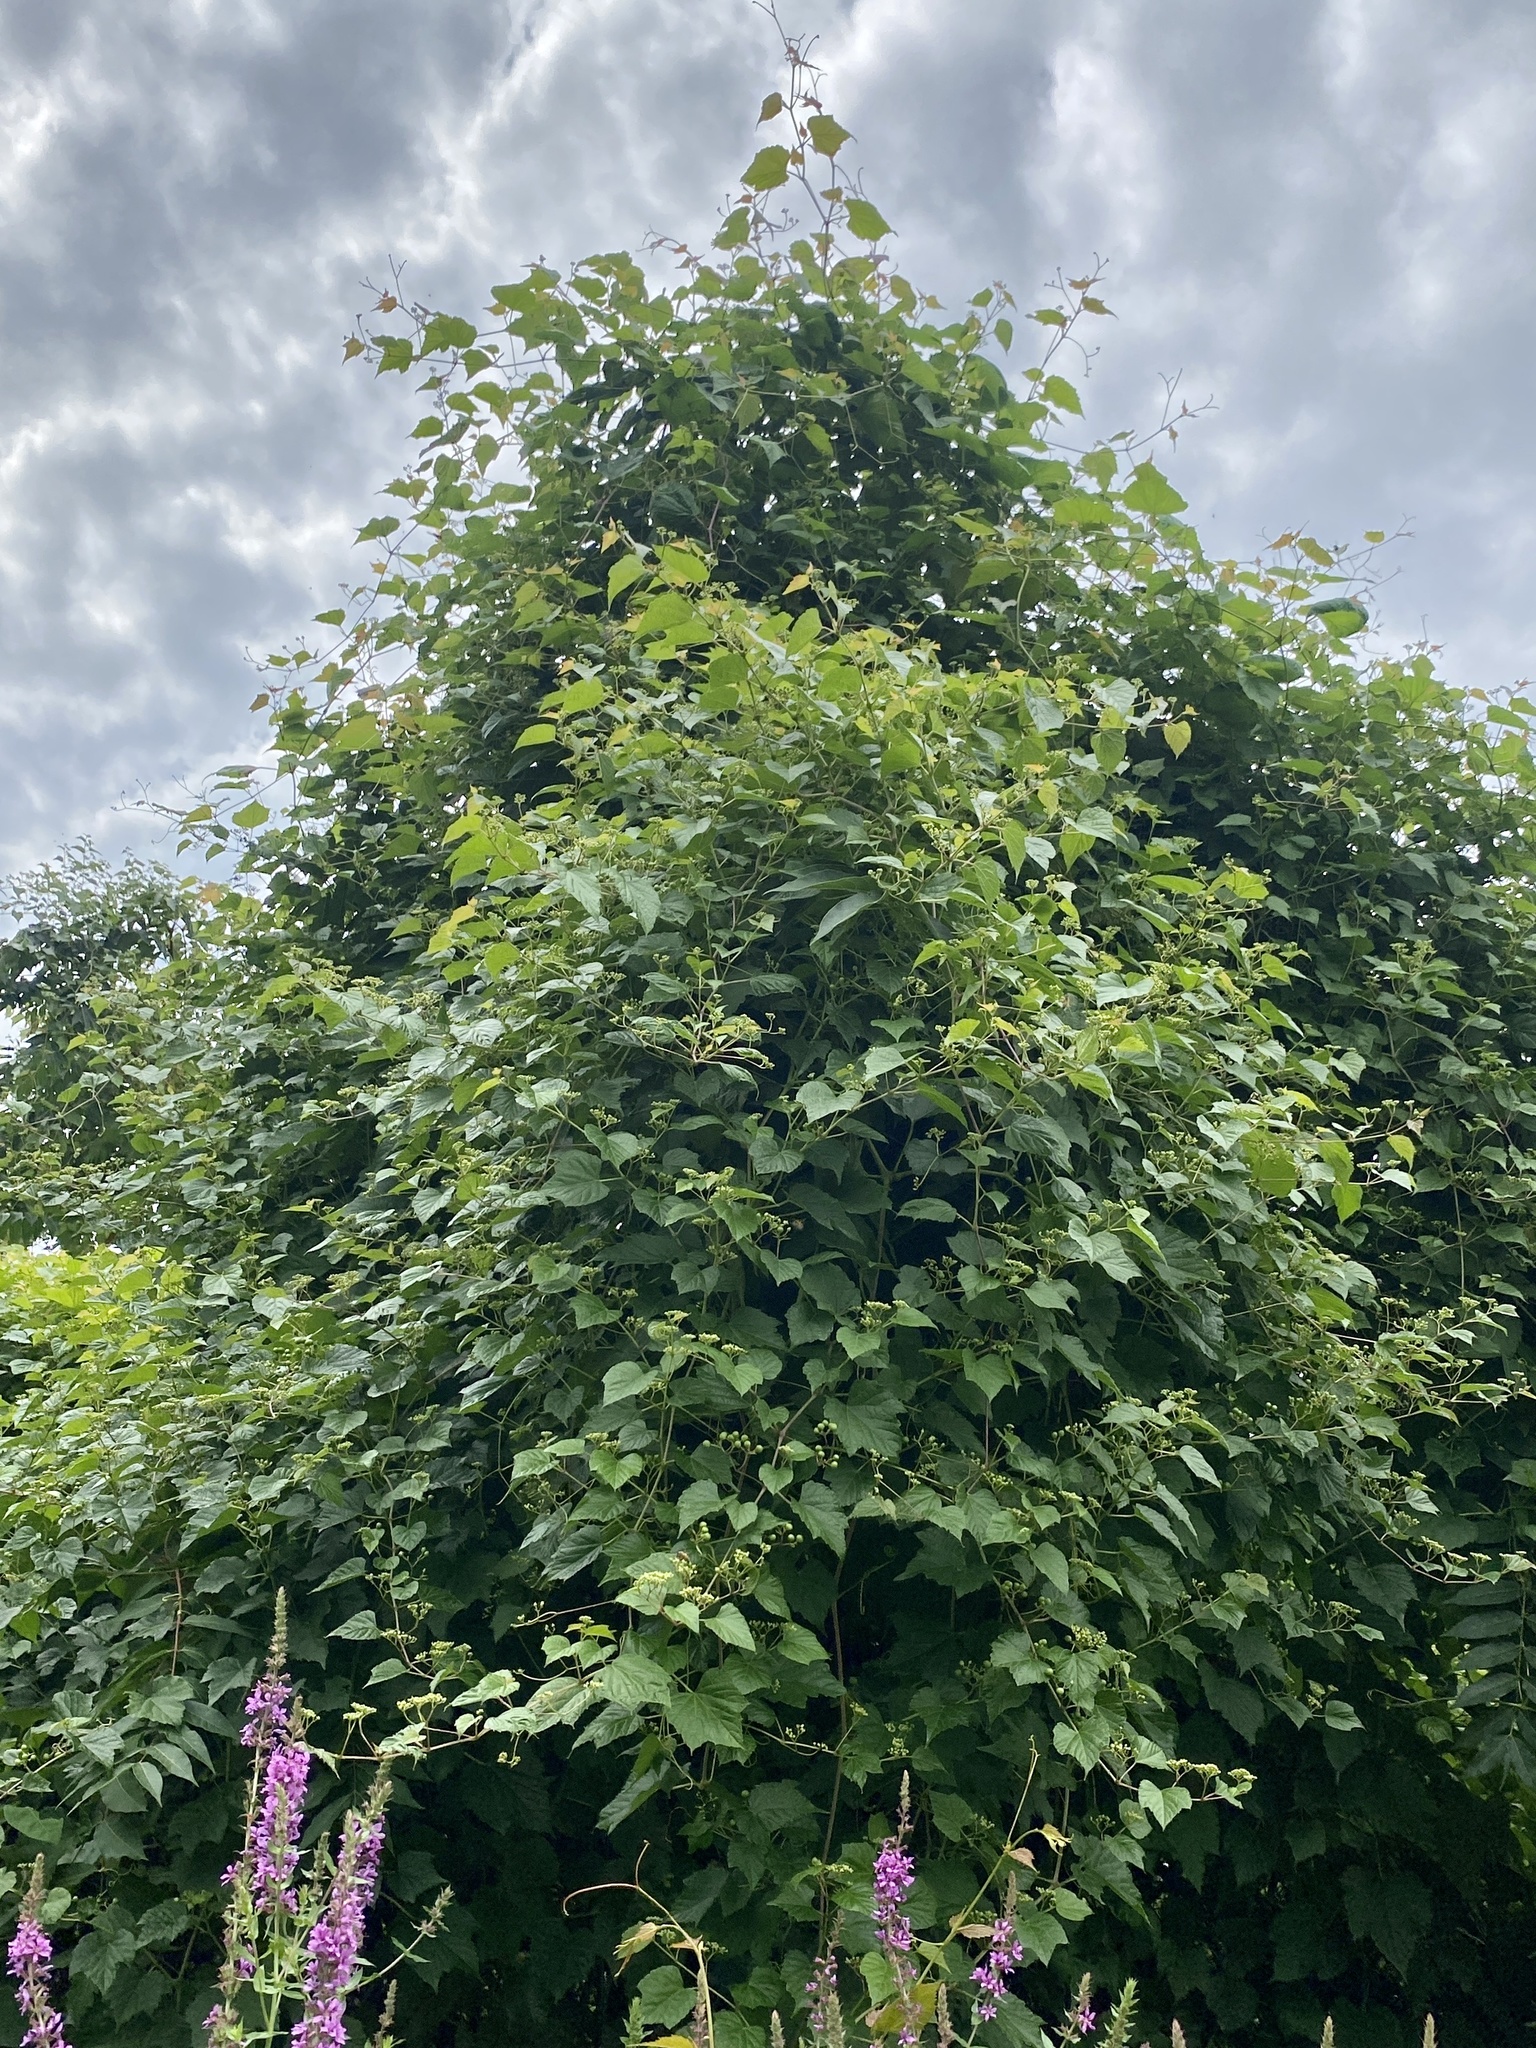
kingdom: Plantae
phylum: Tracheophyta
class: Magnoliopsida
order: Vitales
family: Vitaceae
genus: Ampelopsis
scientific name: Ampelopsis glandulosa
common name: Amur peppervine
